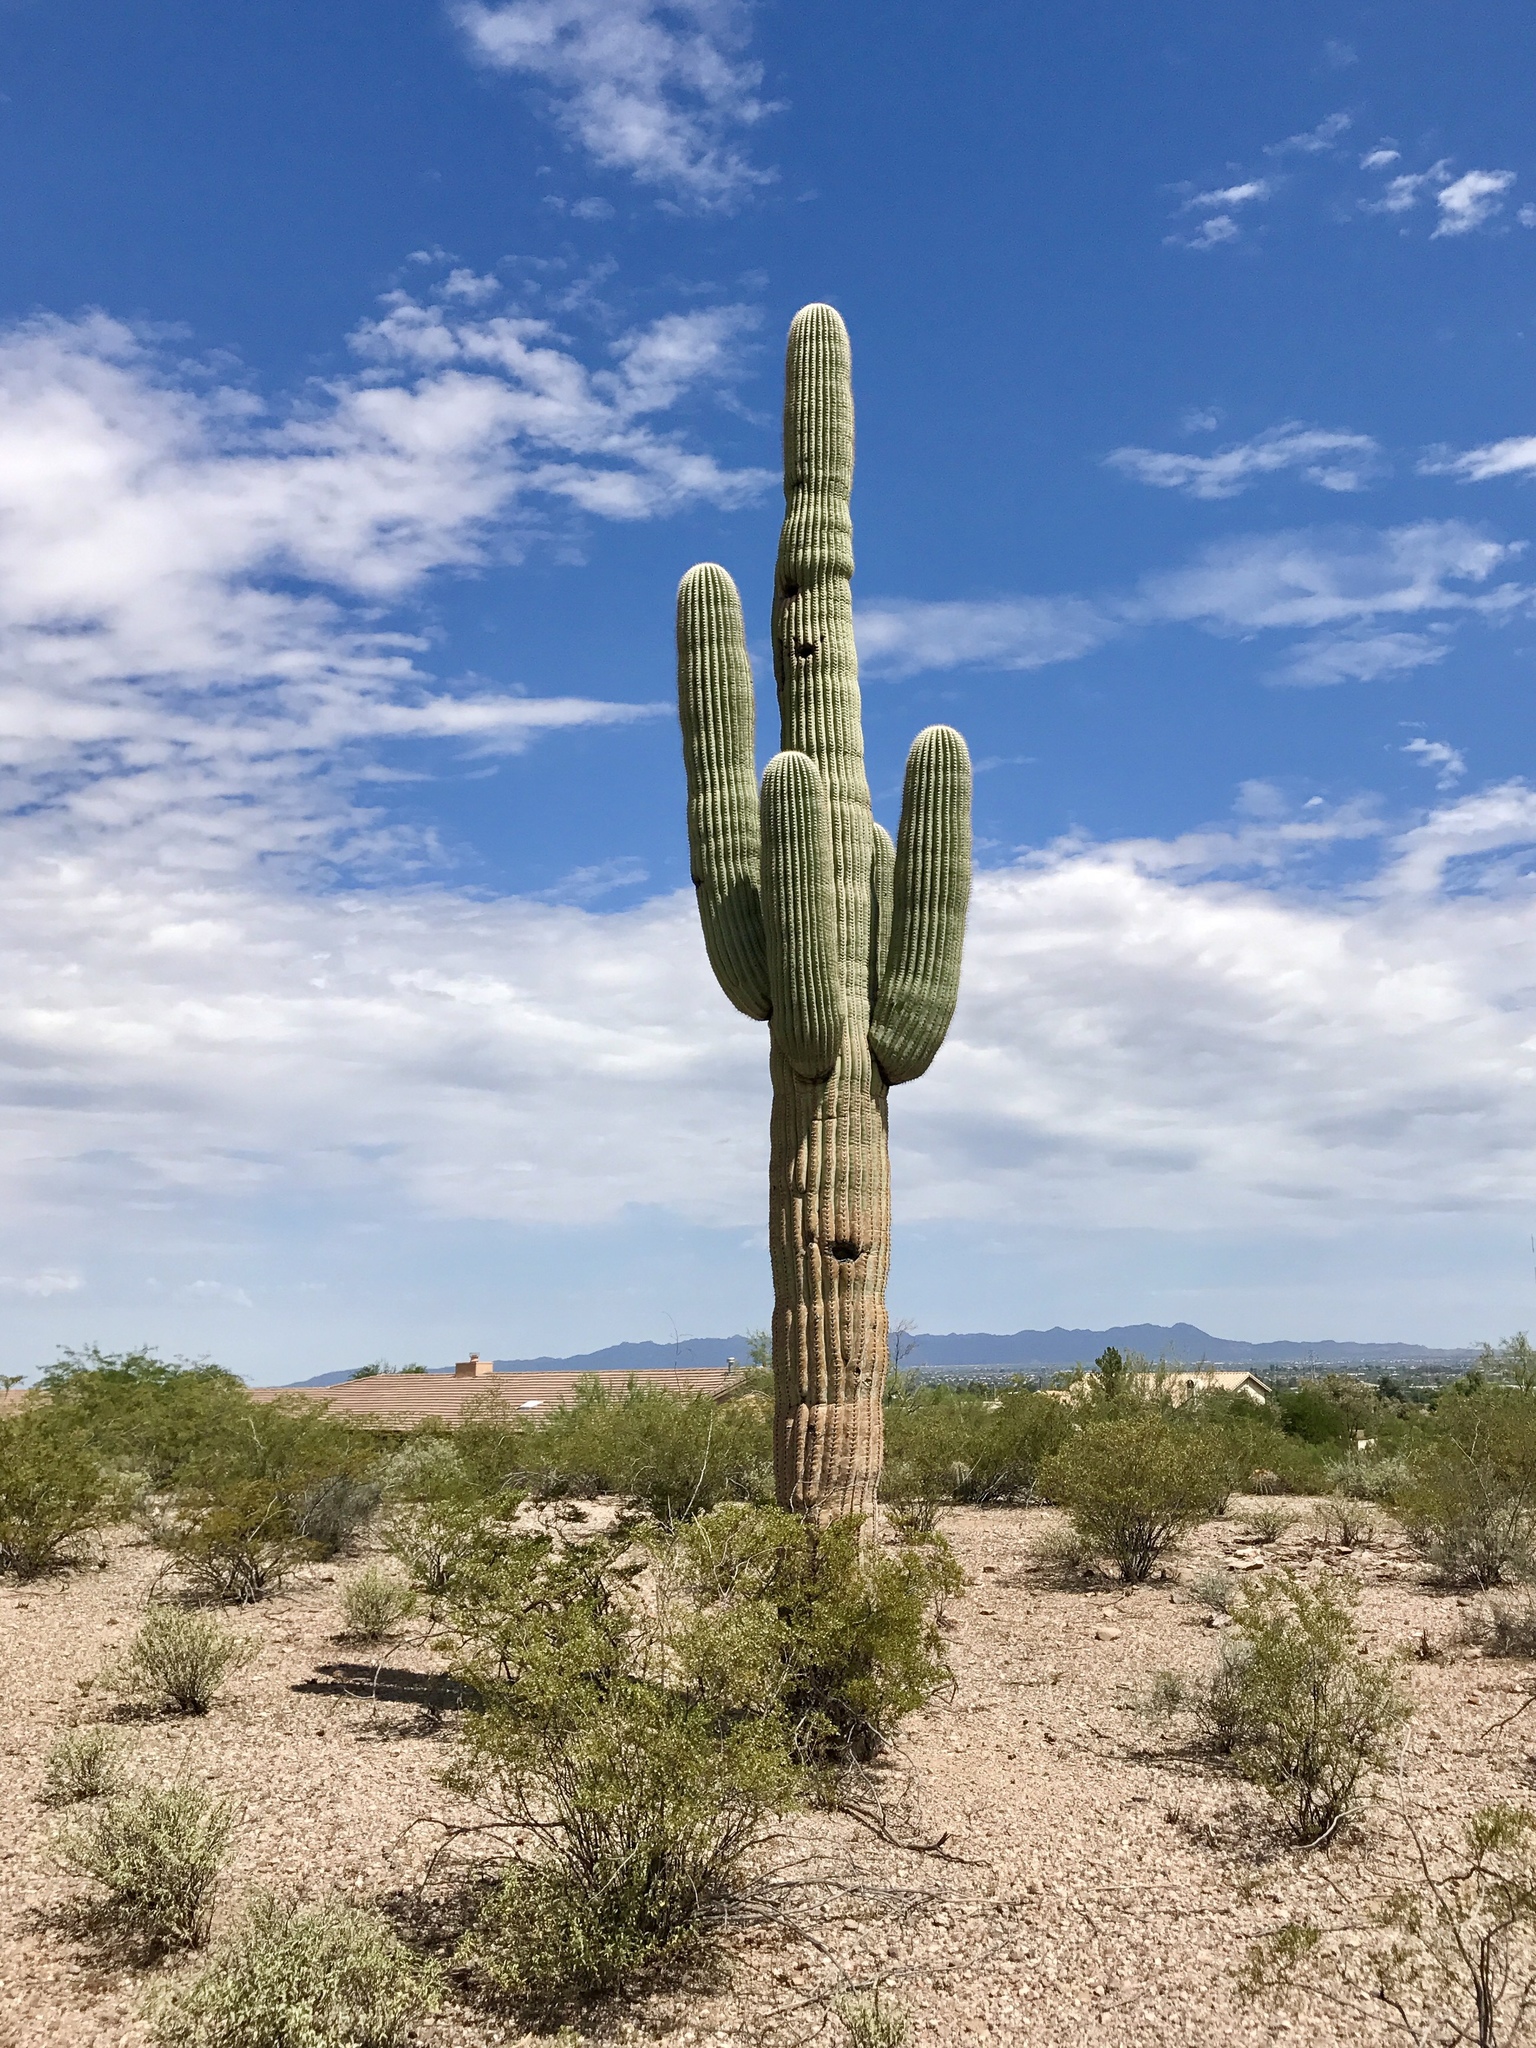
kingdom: Plantae
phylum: Tracheophyta
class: Magnoliopsida
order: Caryophyllales
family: Cactaceae
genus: Carnegiea
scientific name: Carnegiea gigantea
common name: Saguaro
